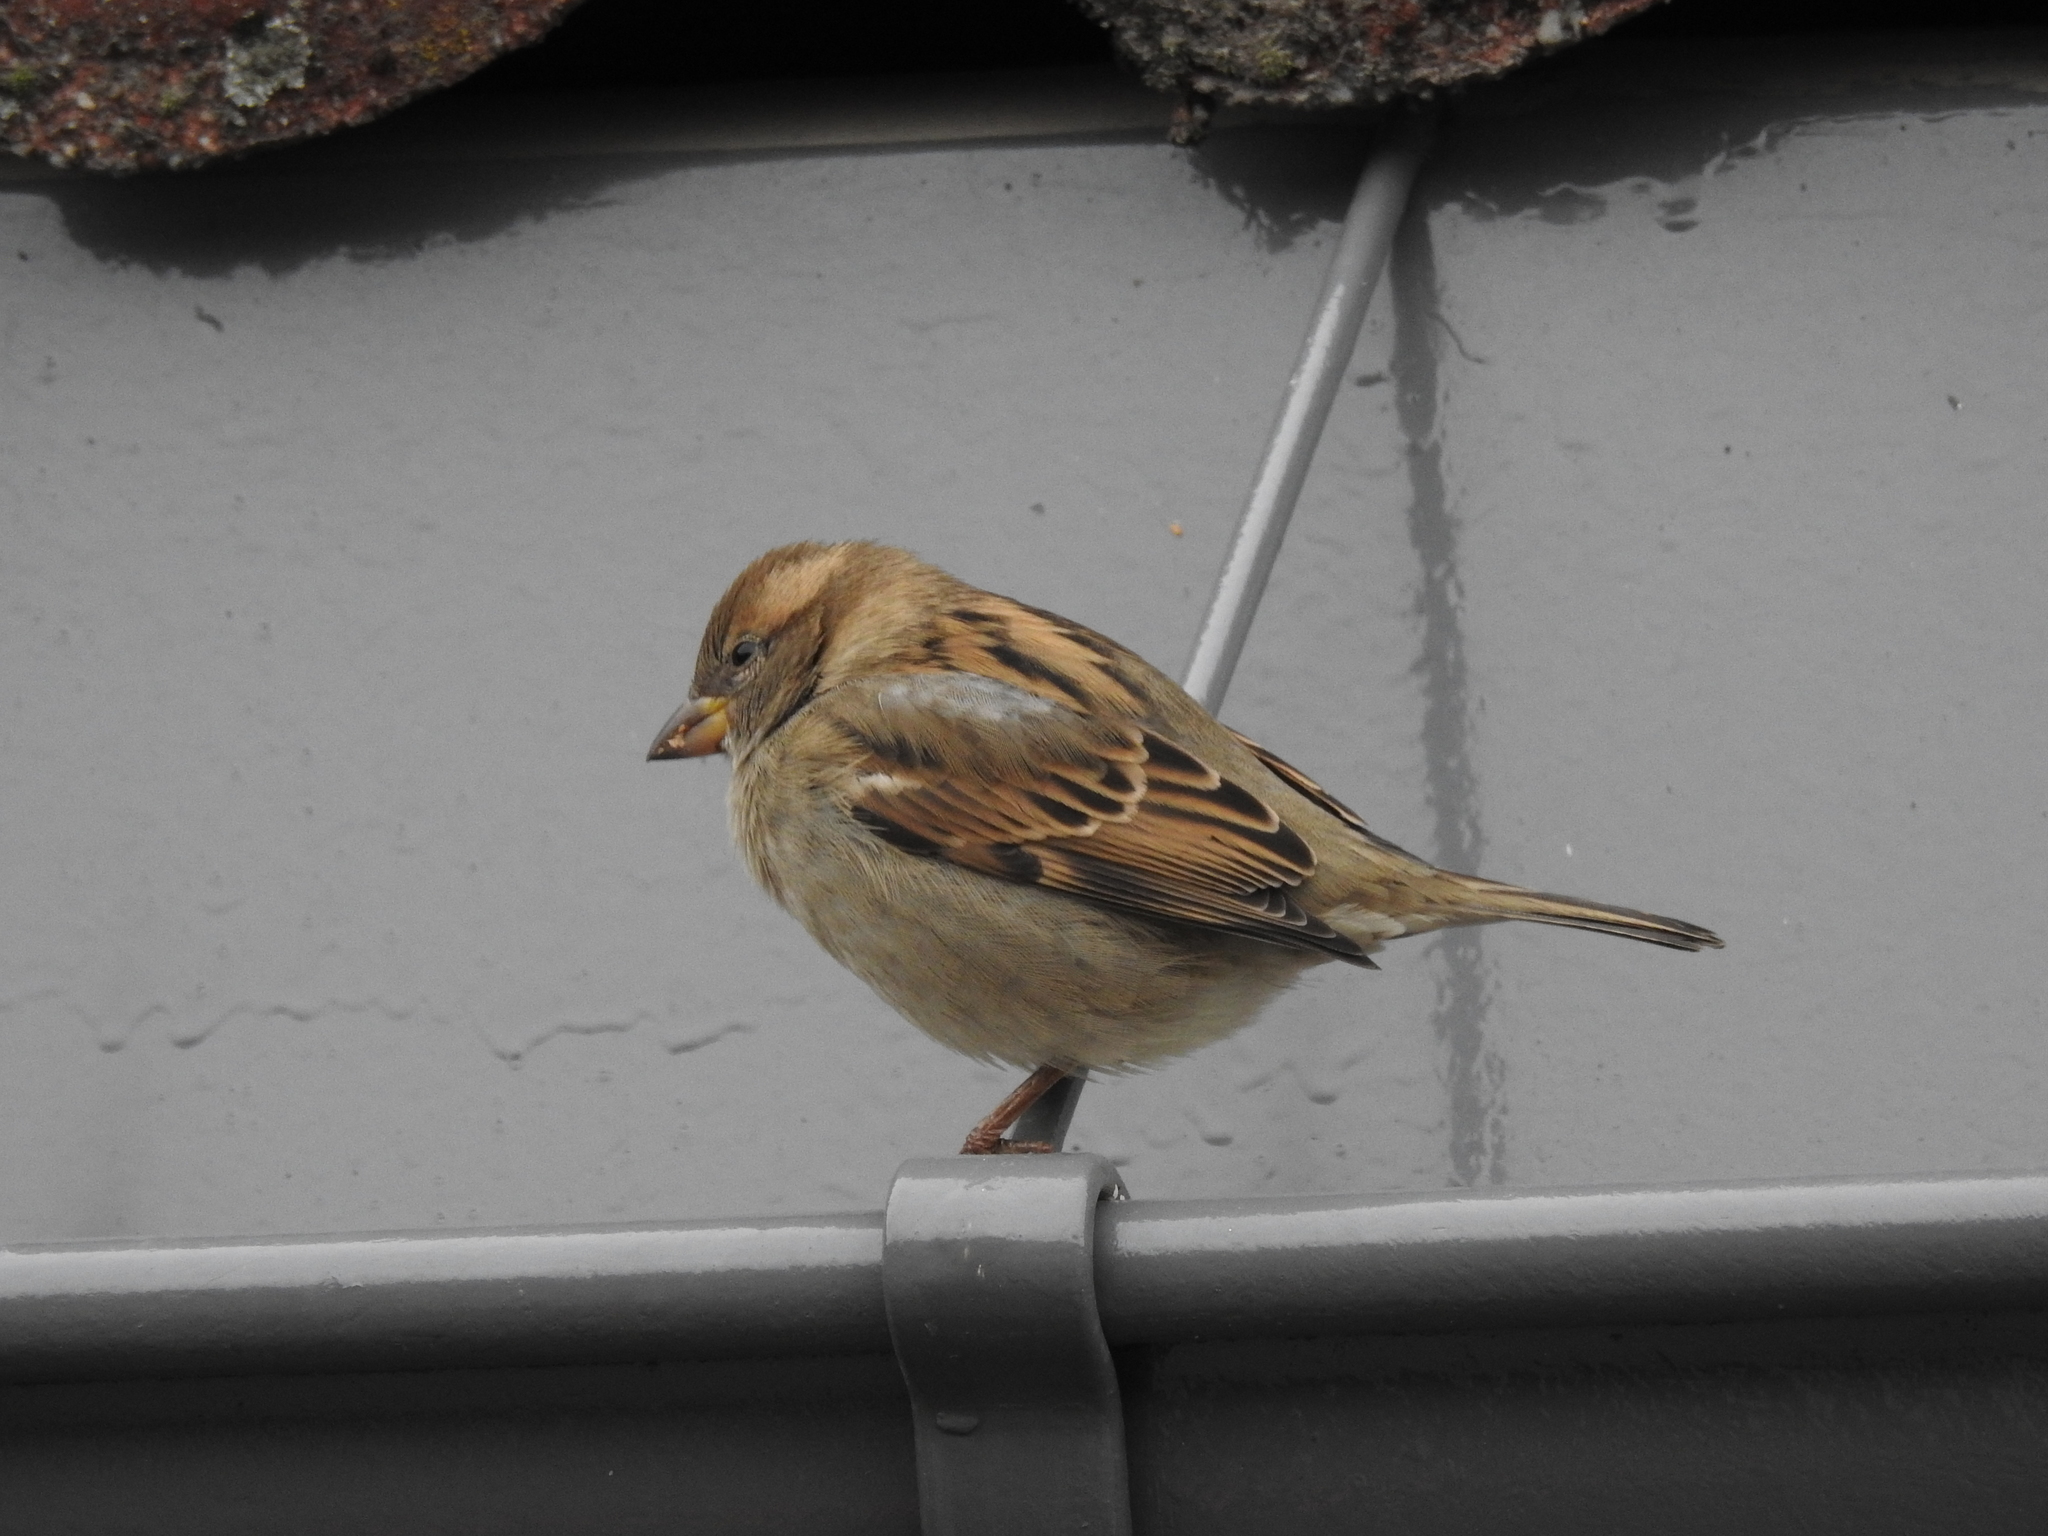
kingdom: Animalia
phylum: Chordata
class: Aves
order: Passeriformes
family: Passeridae
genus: Passer
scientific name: Passer domesticus
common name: House sparrow
